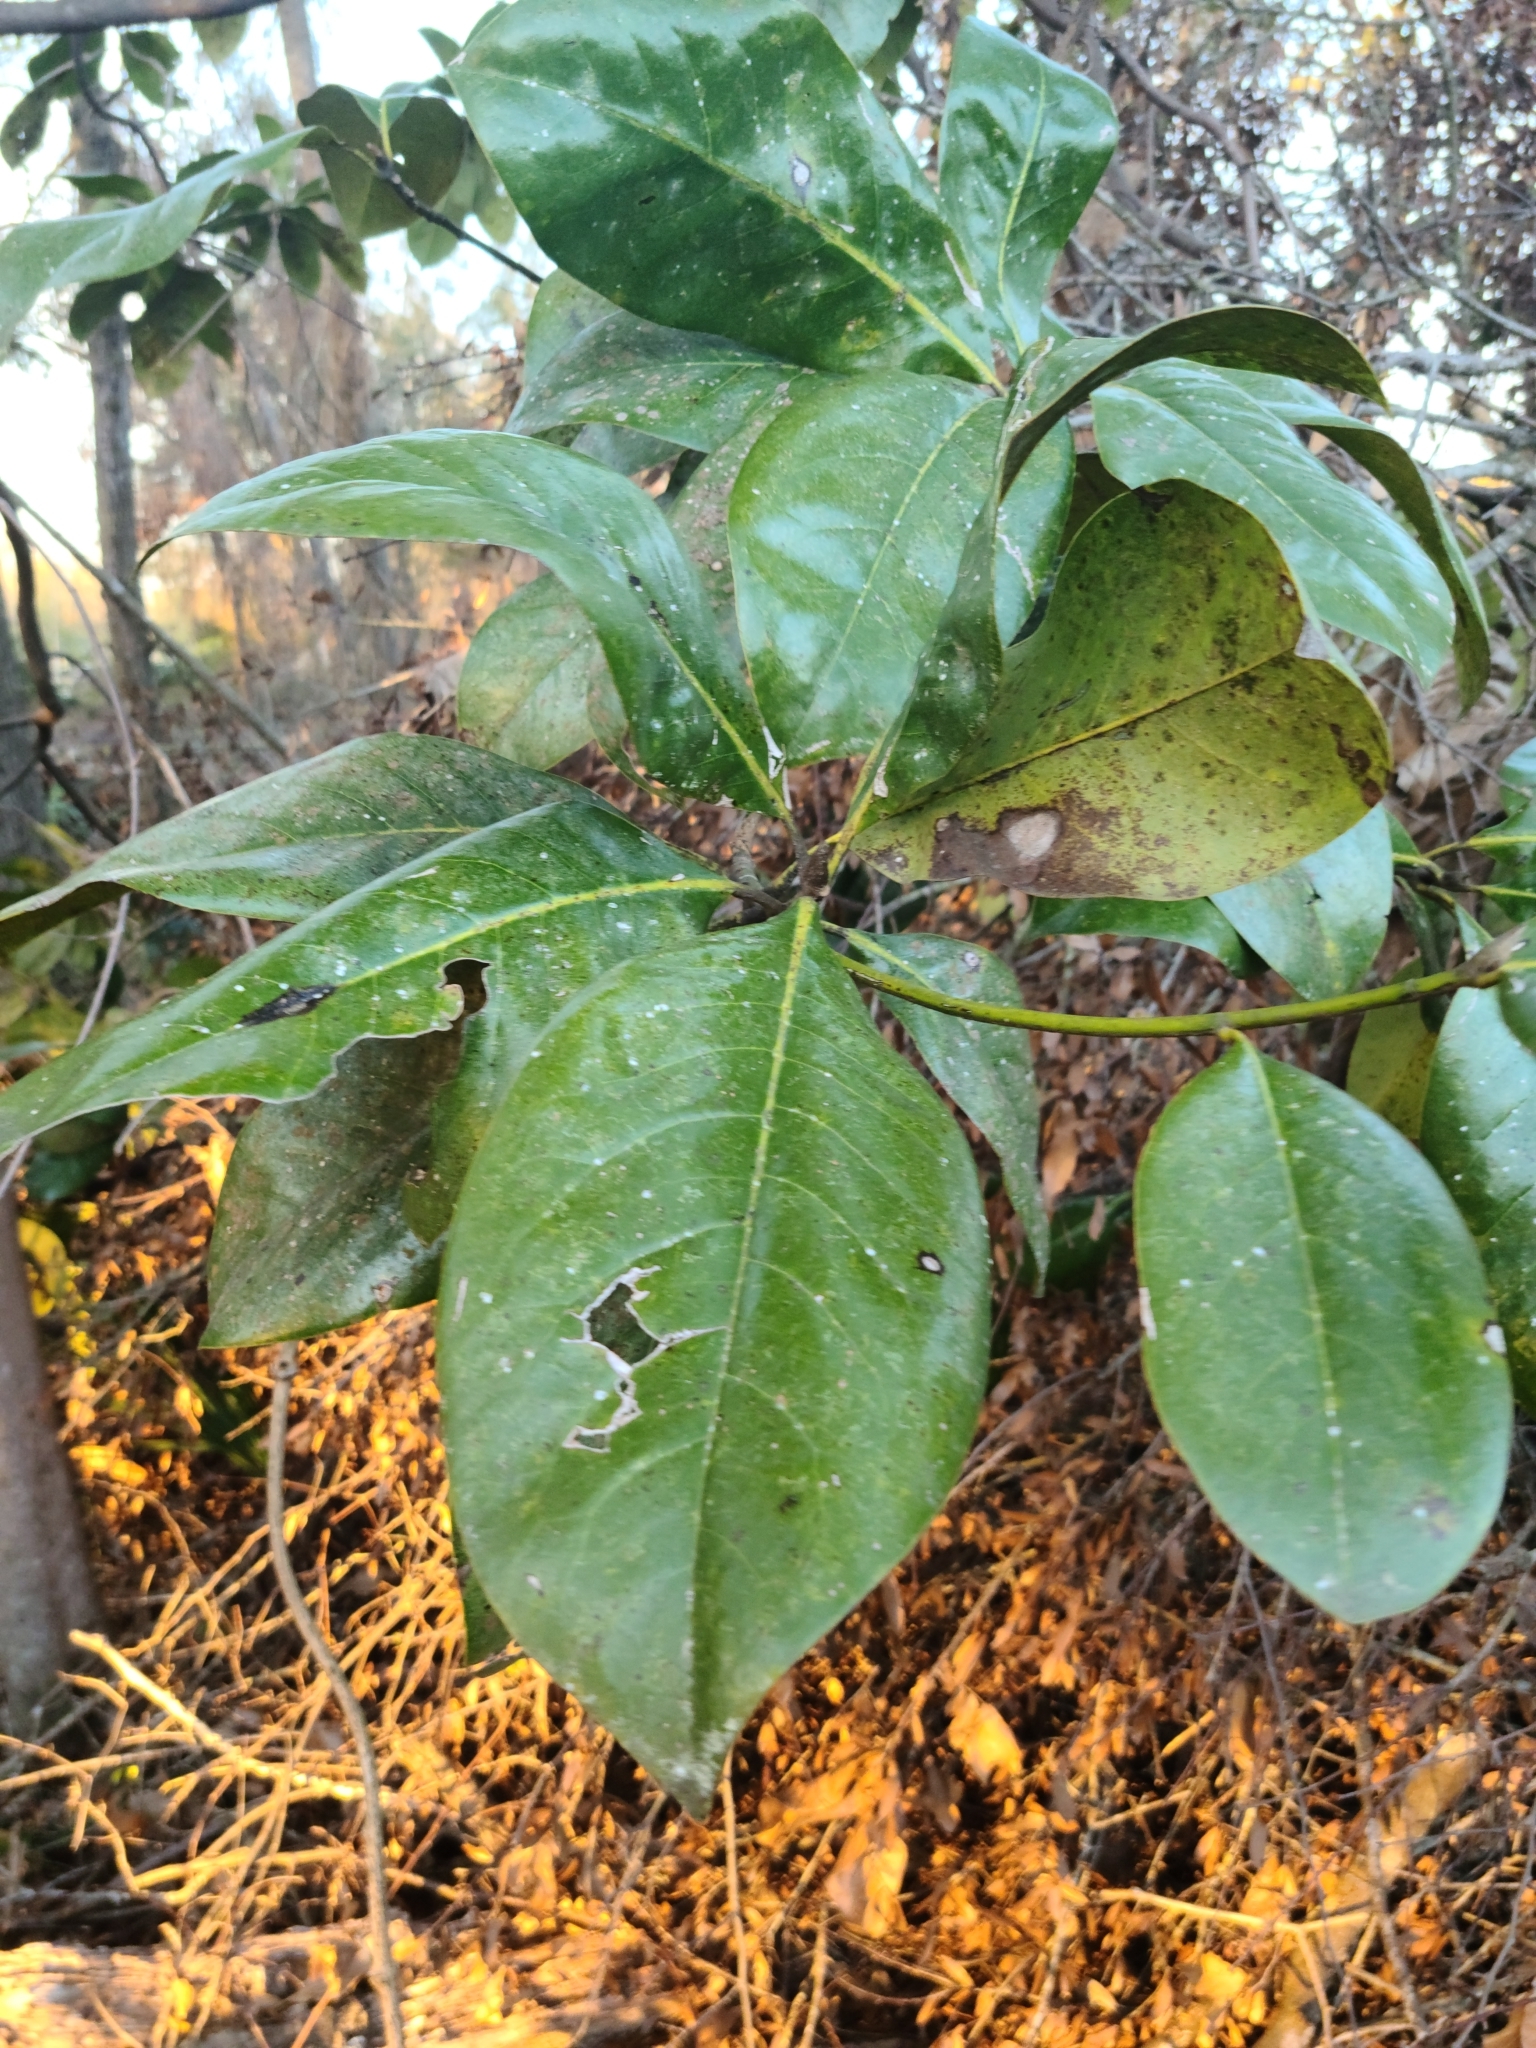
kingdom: Plantae
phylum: Tracheophyta
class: Magnoliopsida
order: Magnoliales
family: Magnoliaceae
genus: Magnolia
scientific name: Magnolia grandiflora
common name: Southern magnolia
